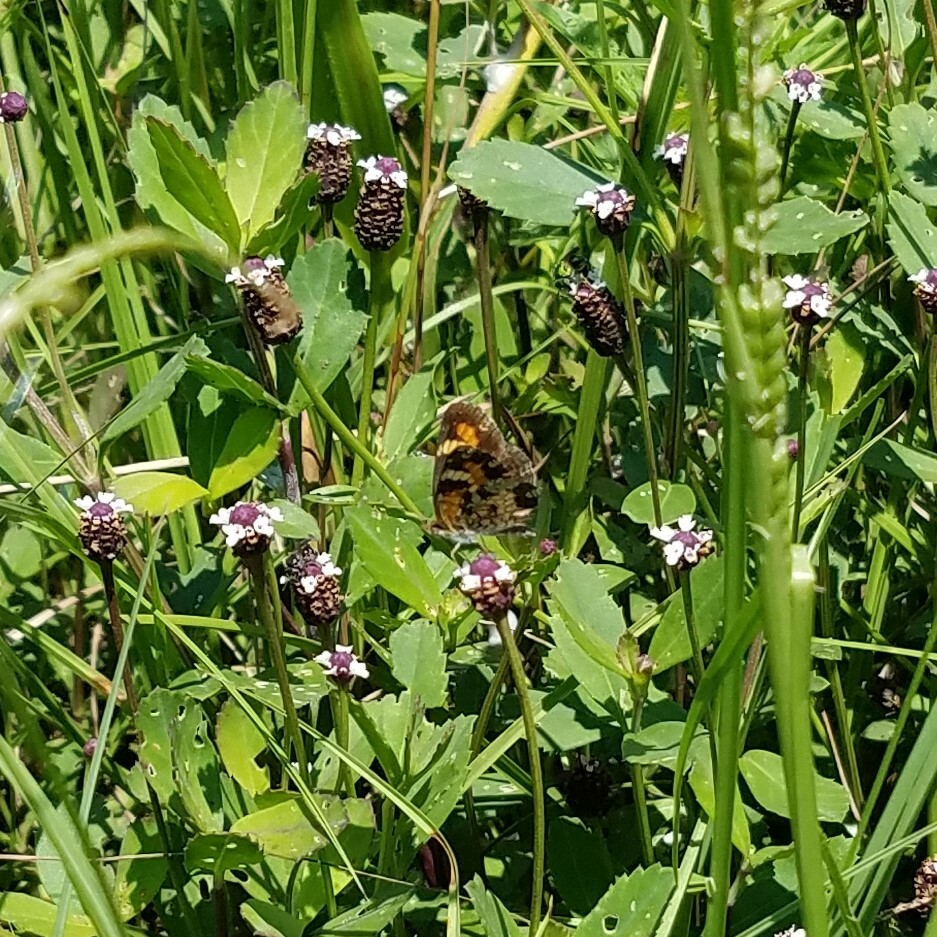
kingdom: Animalia
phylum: Arthropoda
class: Insecta
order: Lepidoptera
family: Nymphalidae
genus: Phyciodes
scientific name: Phyciodes phaon
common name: Phaon crescent
